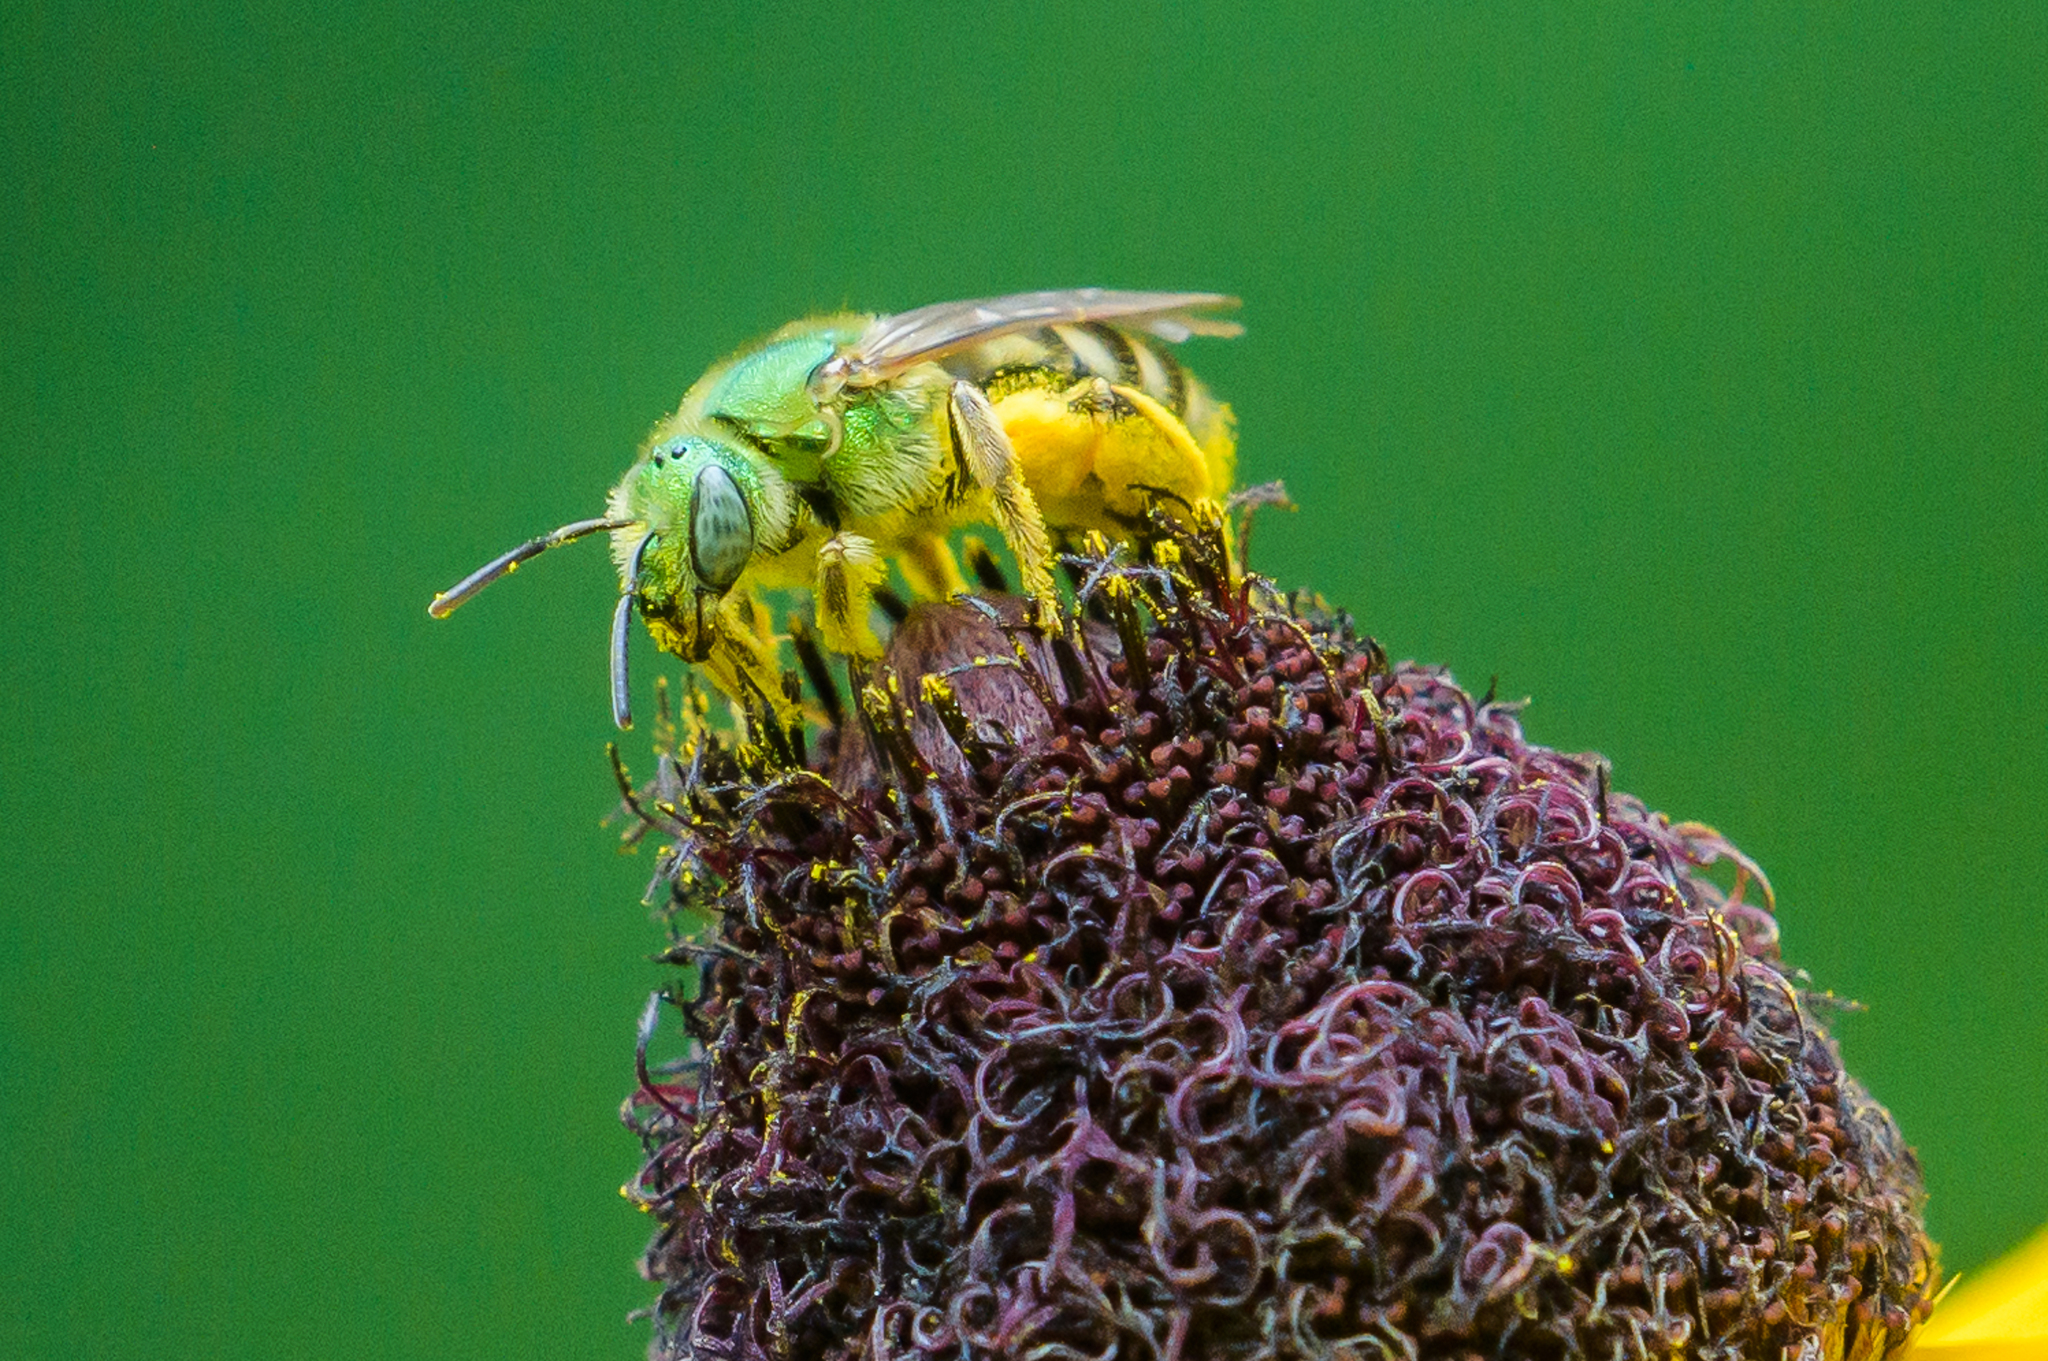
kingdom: Animalia
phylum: Arthropoda
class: Insecta
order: Hymenoptera
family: Halictidae
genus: Agapostemon
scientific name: Agapostemon virescens
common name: Bicolored striped sweat bee
